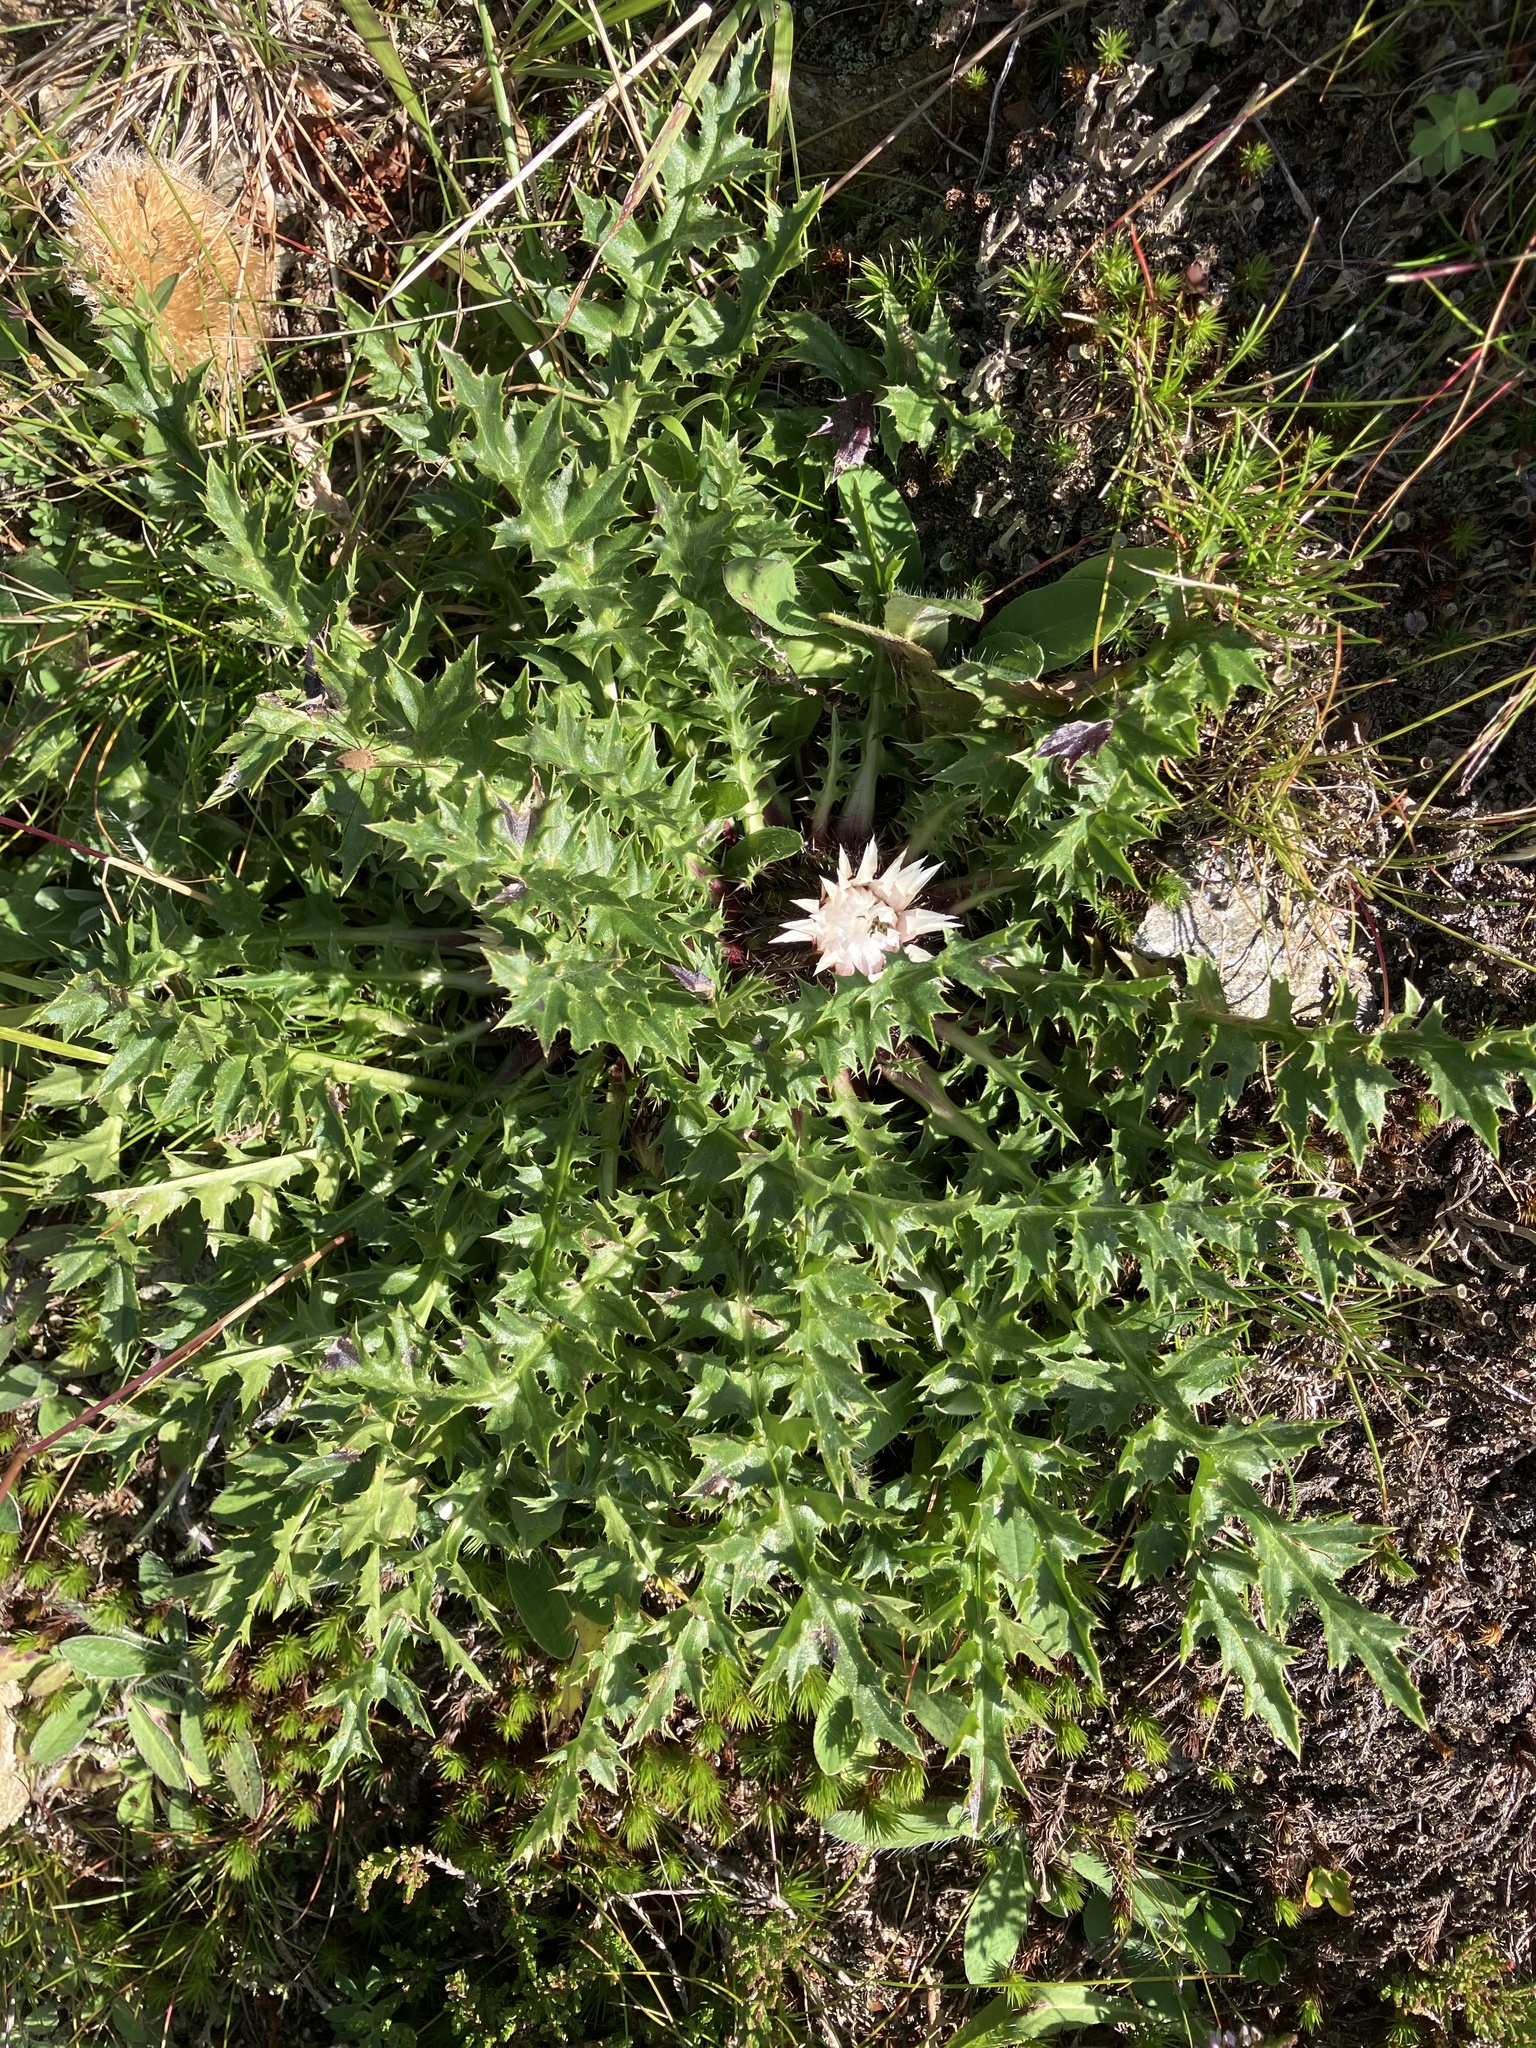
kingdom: Plantae
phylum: Tracheophyta
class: Magnoliopsida
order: Asterales
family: Asteraceae
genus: Carlina
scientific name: Carlina acaulis
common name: Stemless carline thistle
